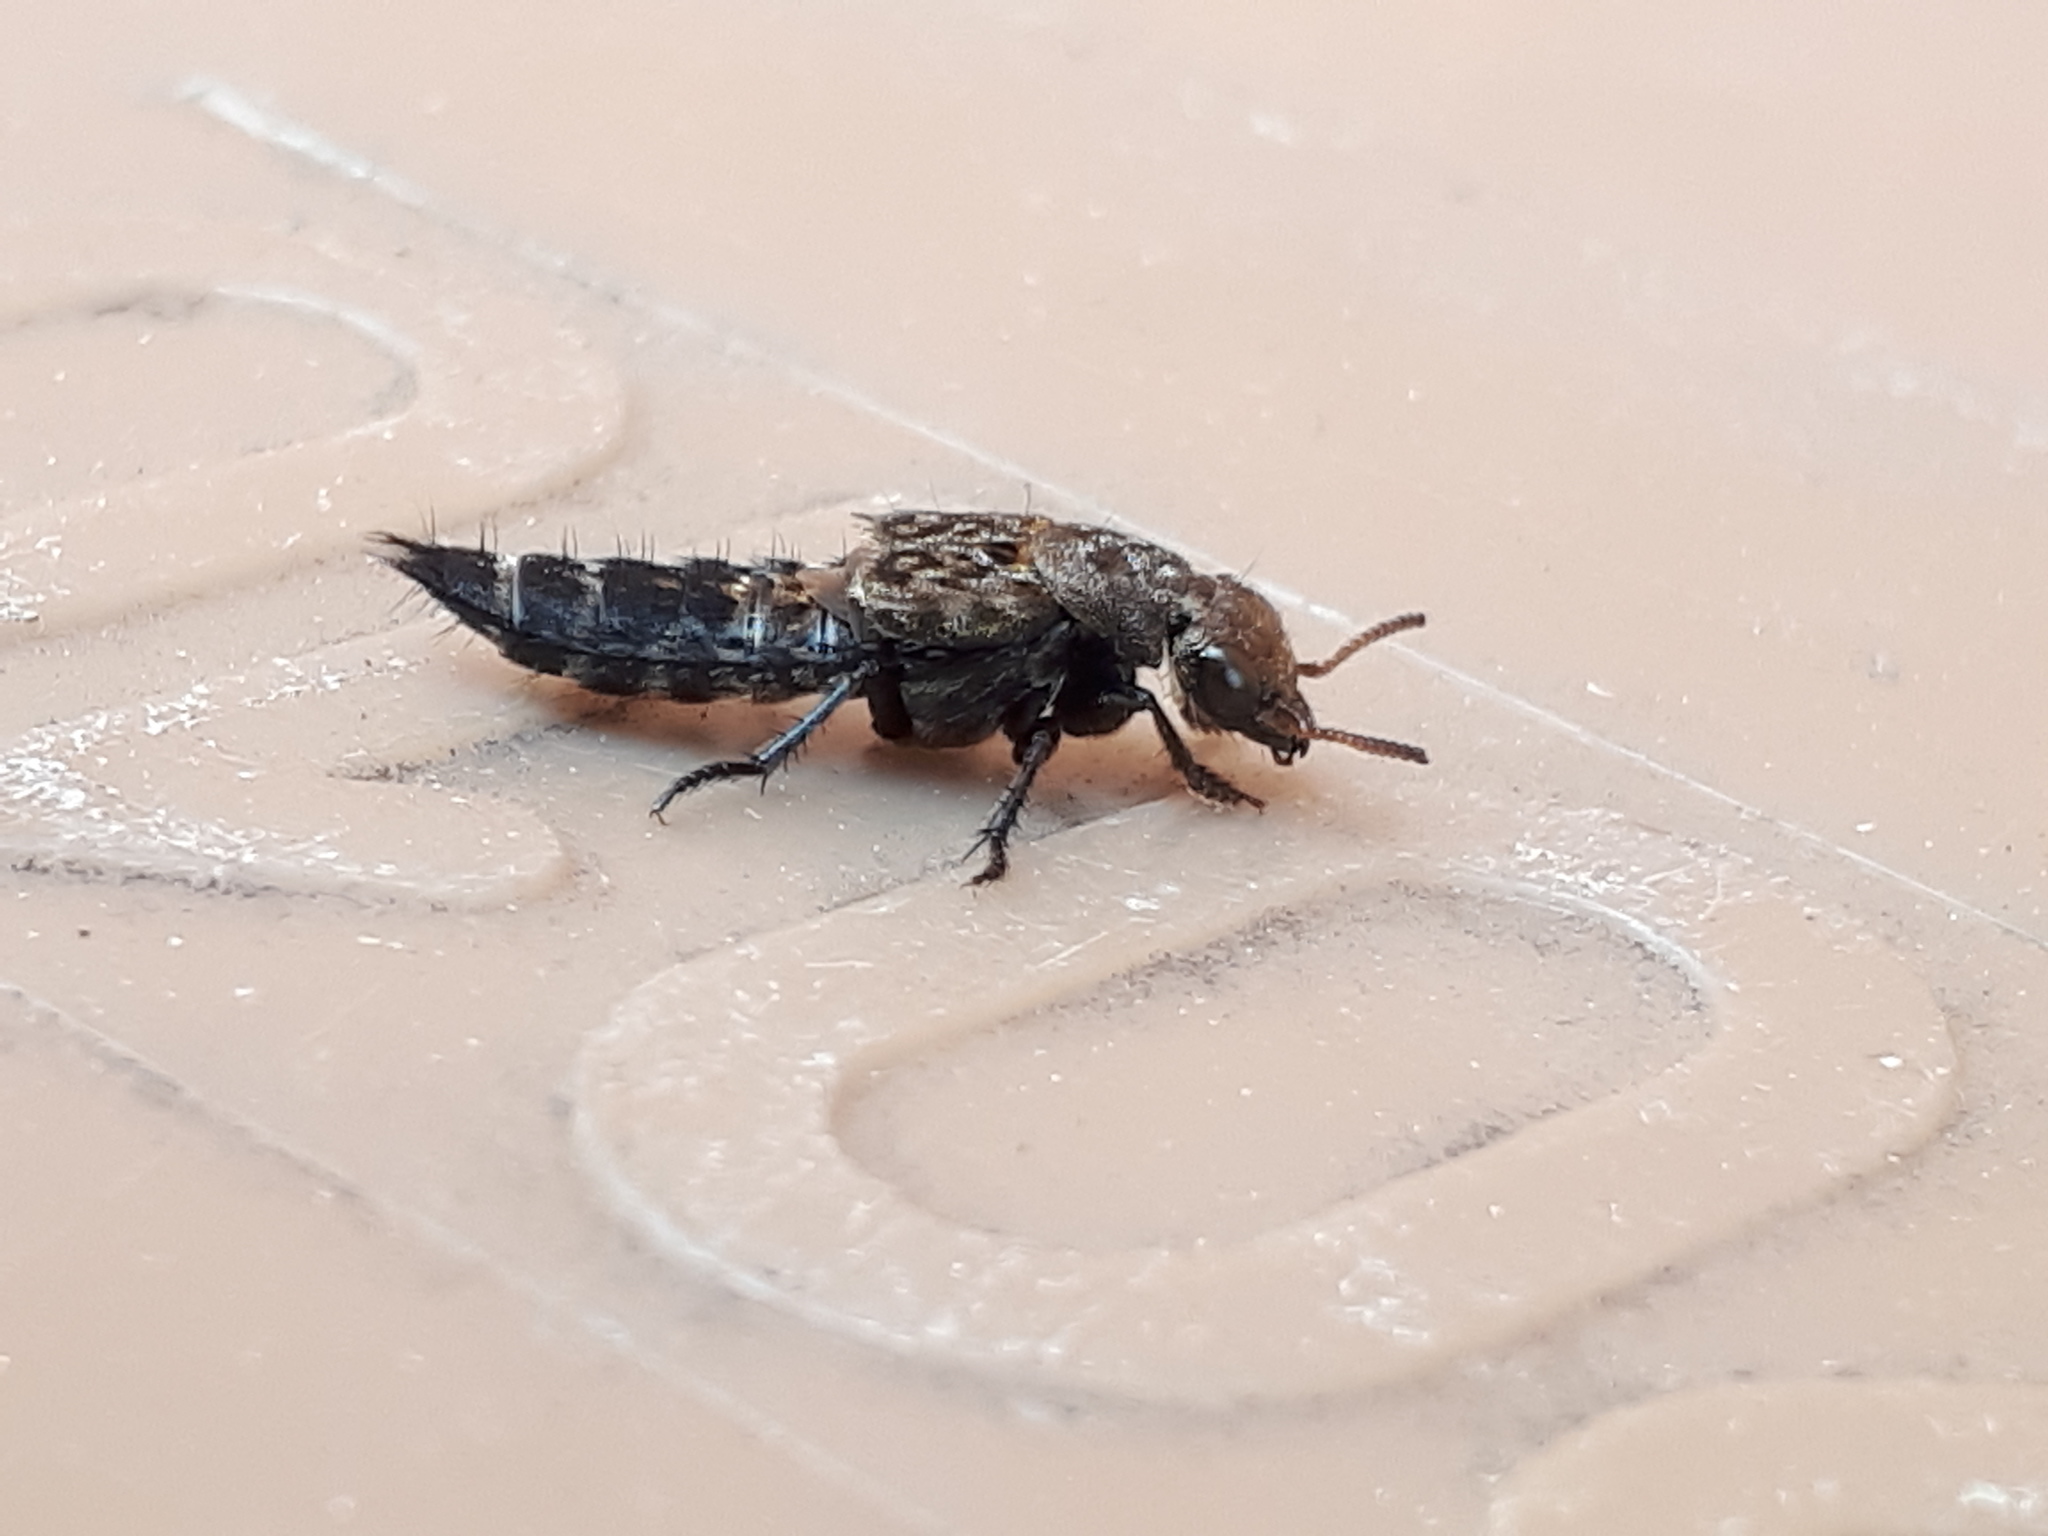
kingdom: Animalia
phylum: Arthropoda
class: Insecta
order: Coleoptera
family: Staphylinidae
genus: Ontholestes
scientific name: Ontholestes murinus
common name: Staph beetle
